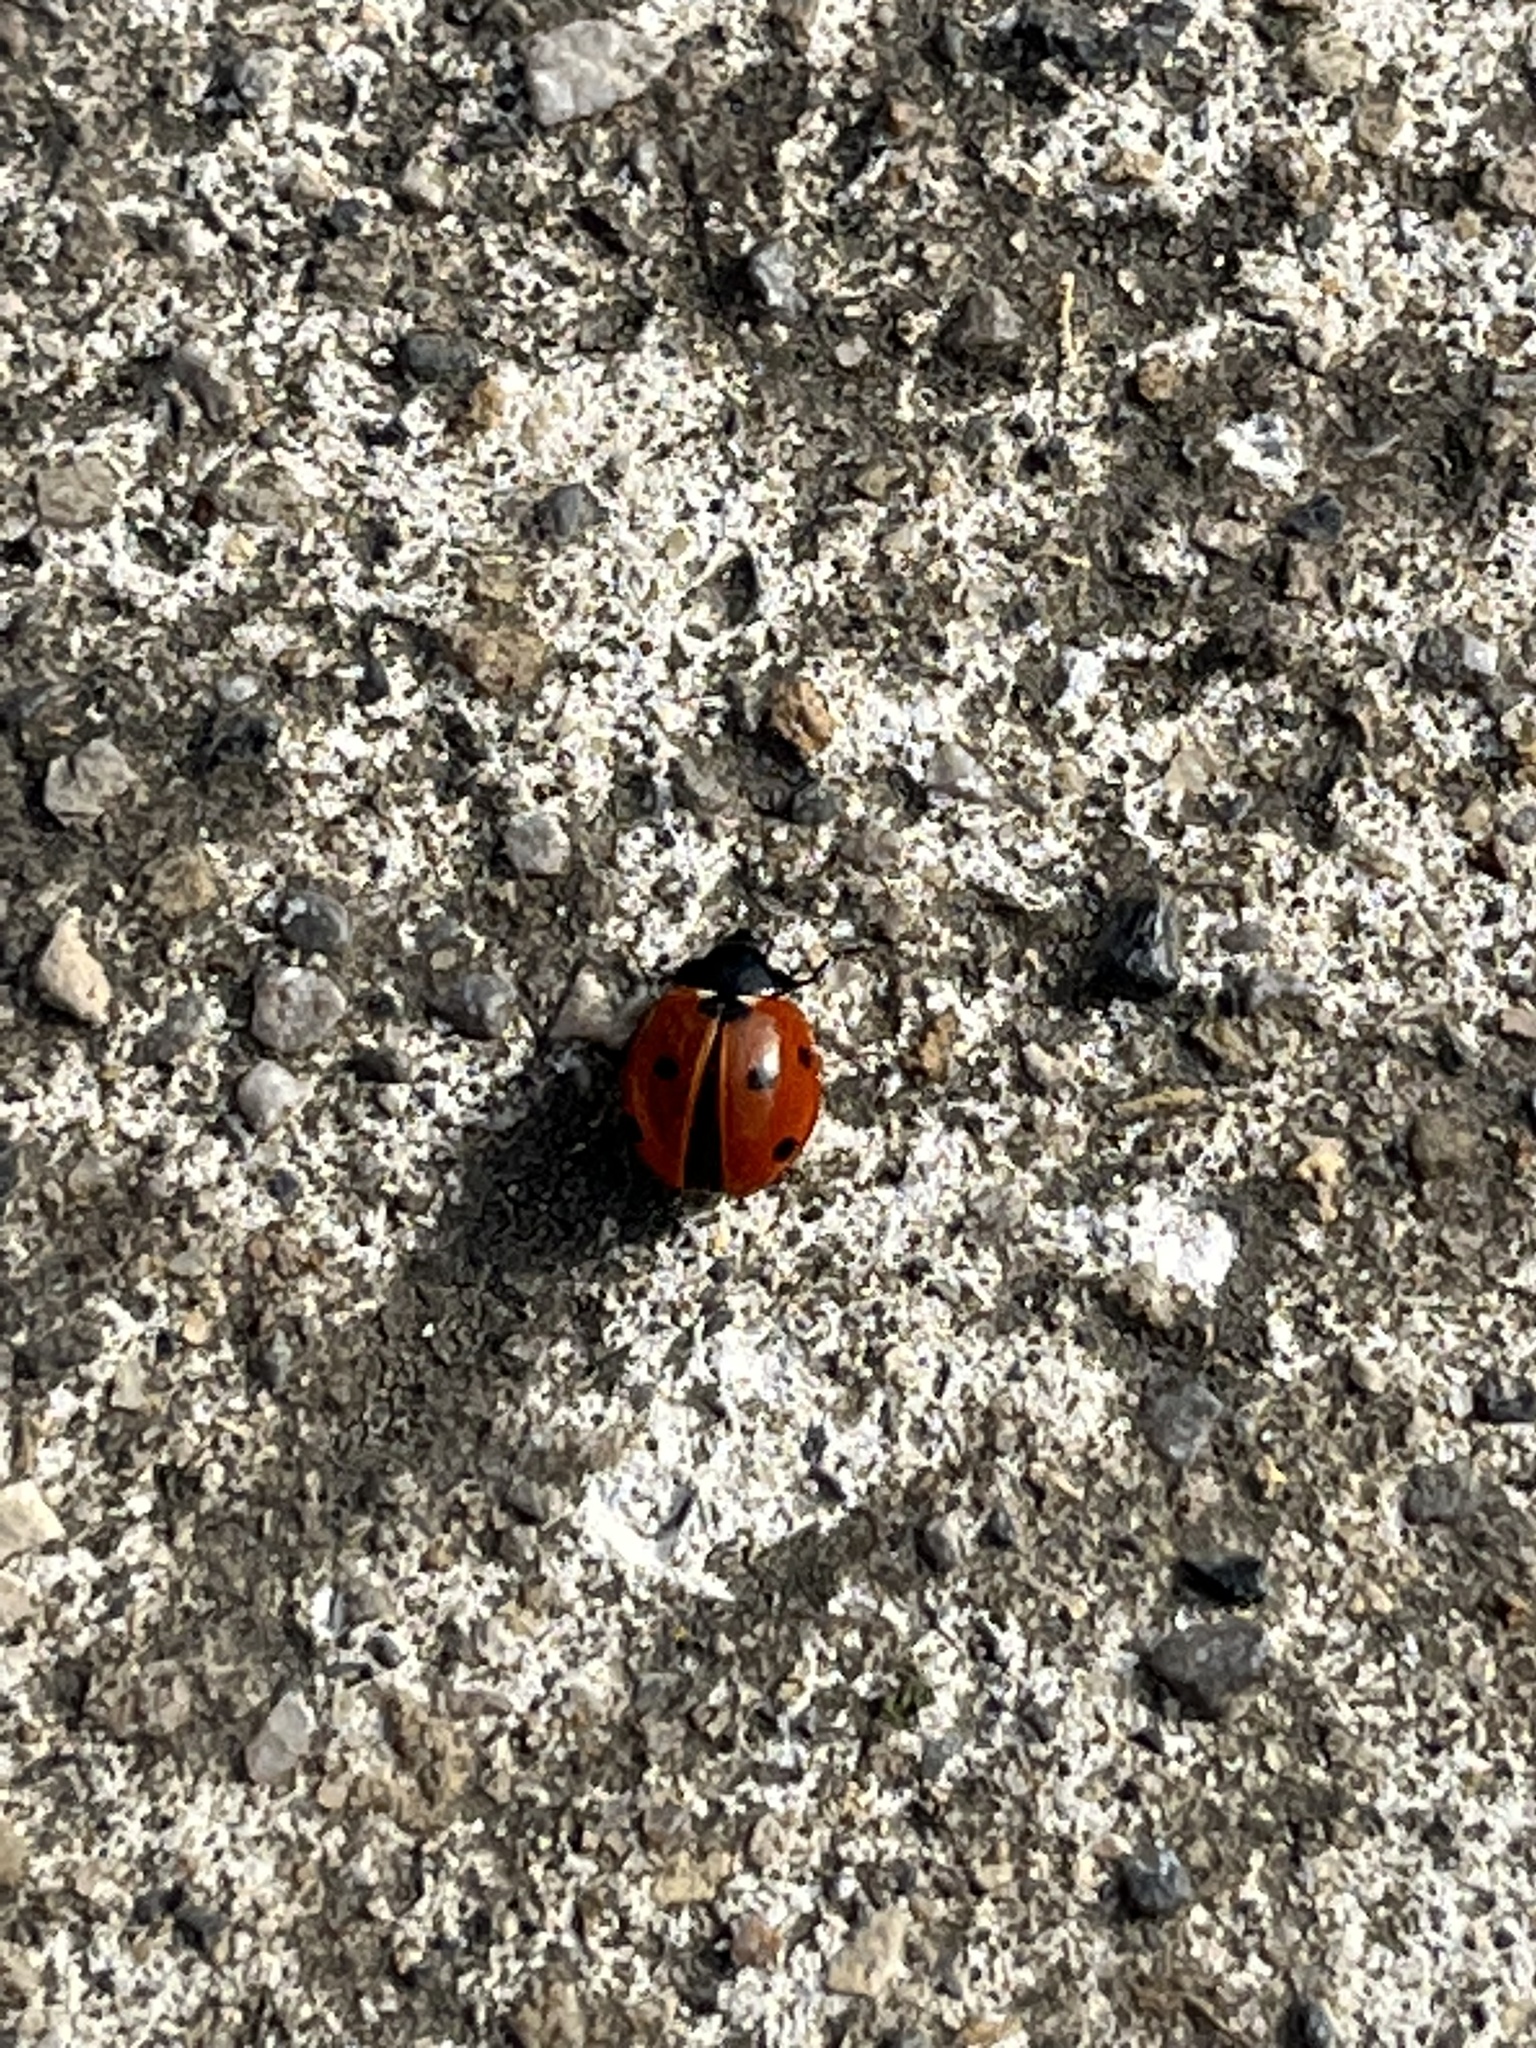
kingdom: Animalia
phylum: Arthropoda
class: Insecta
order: Coleoptera
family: Coccinellidae
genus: Coccinella
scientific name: Coccinella septempunctata
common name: Sevenspotted lady beetle
